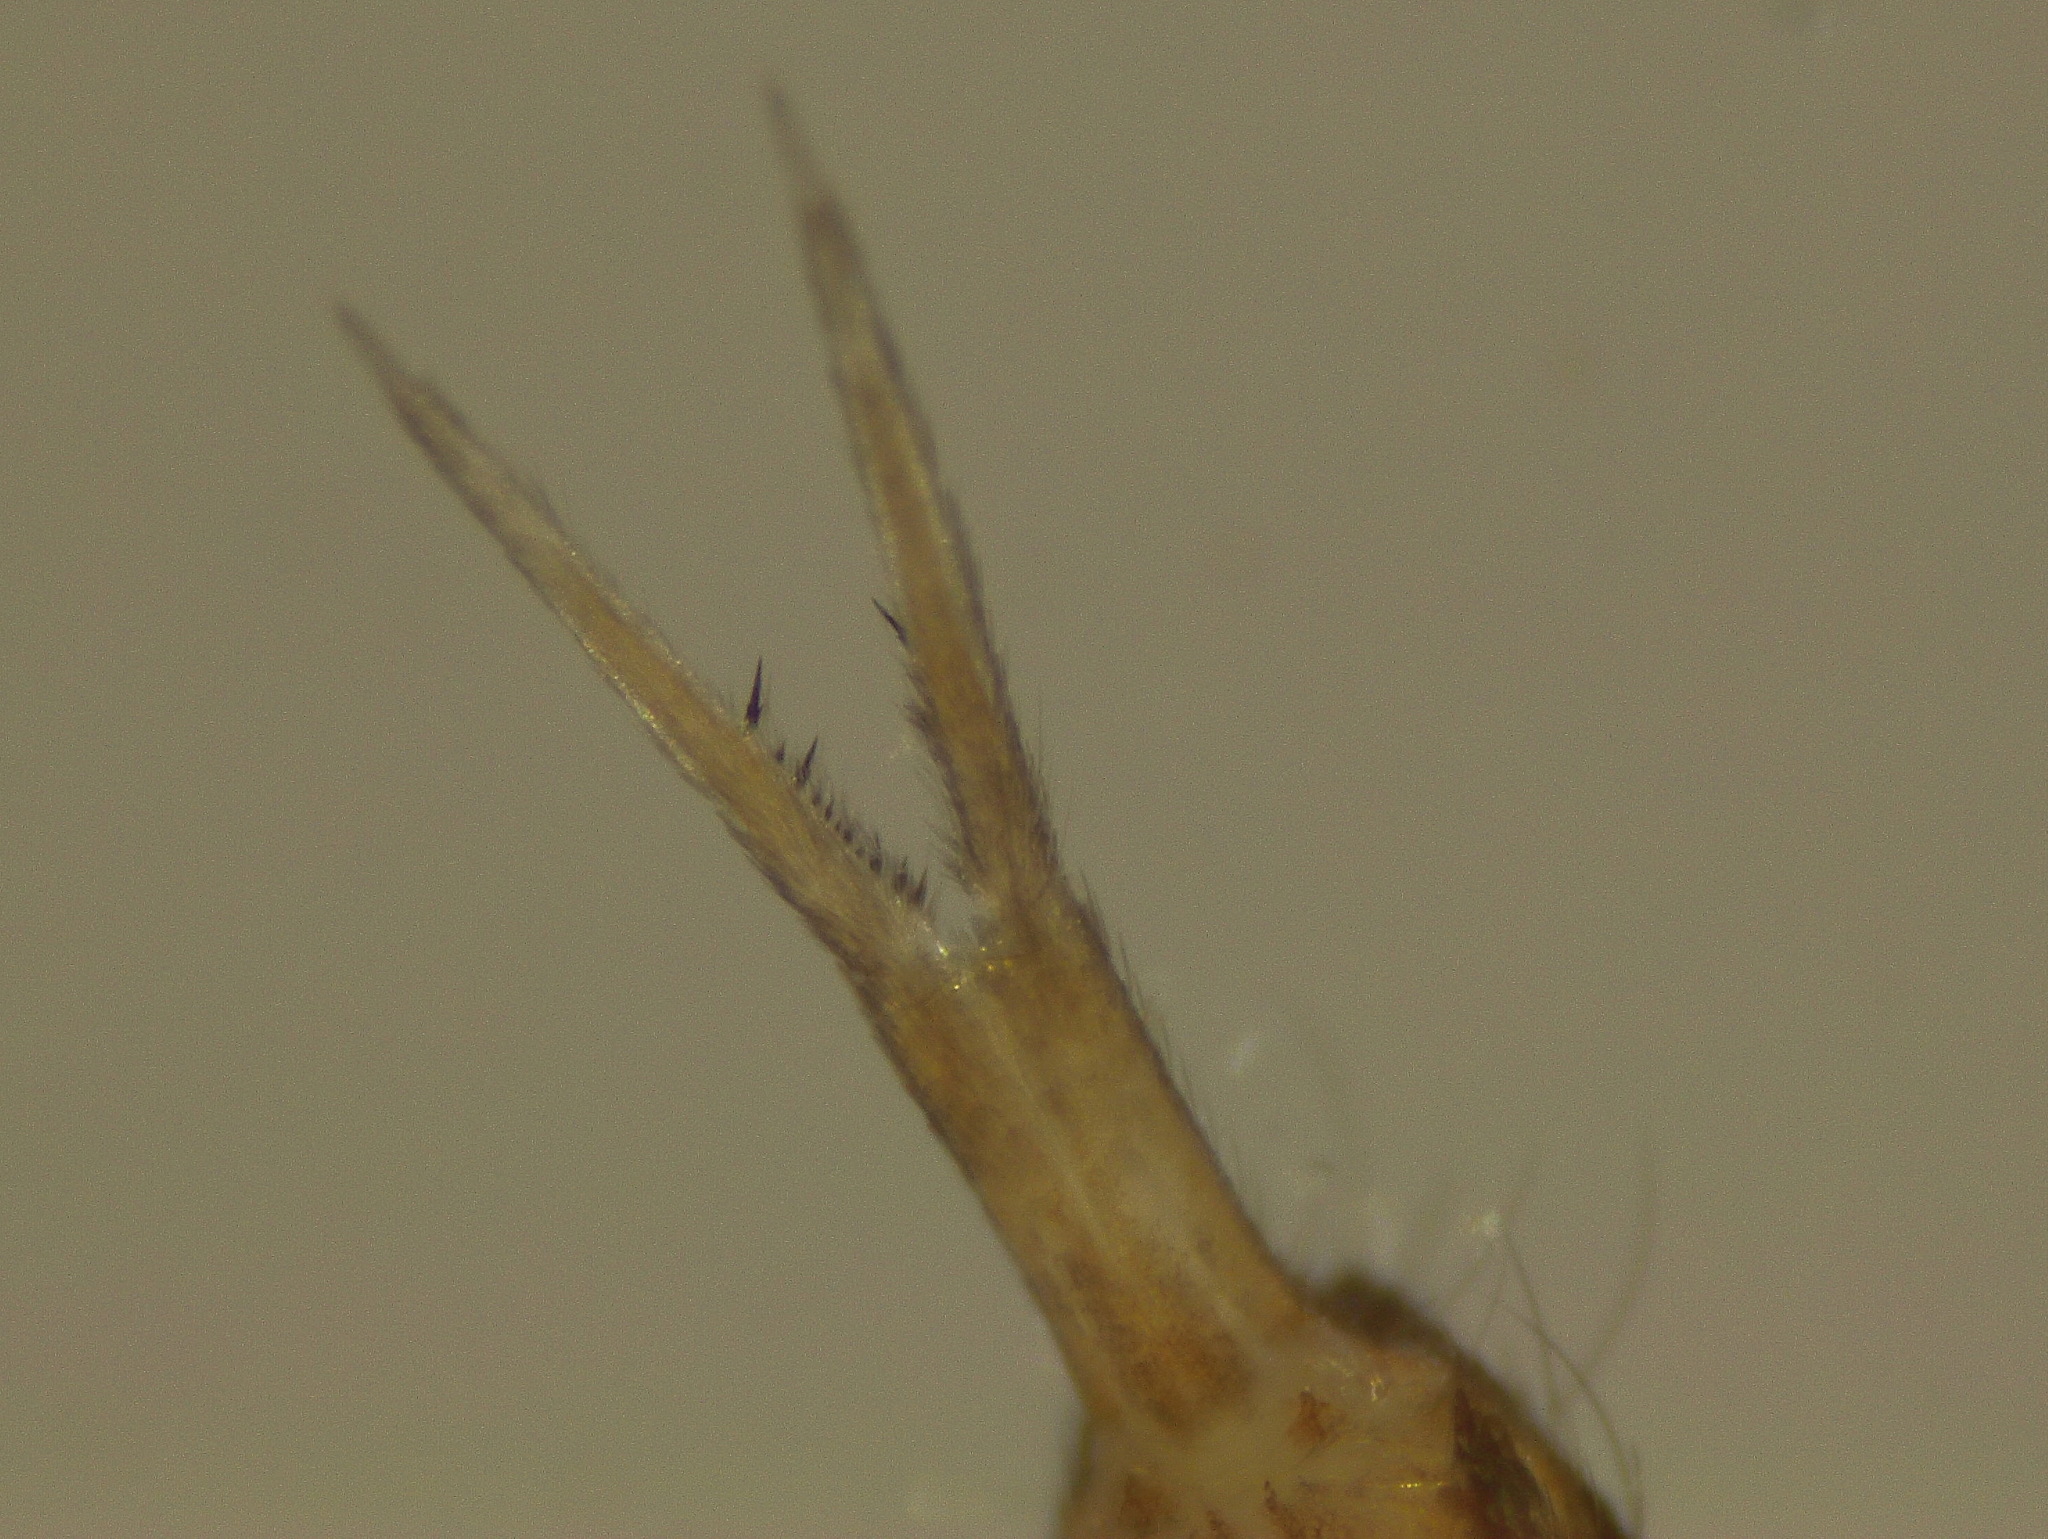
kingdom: Animalia
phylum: Arthropoda
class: Collembola
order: Entomobryomorpha
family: Tomoceridae
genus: Tomocerus
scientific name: Tomocerus minor
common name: Springtail
